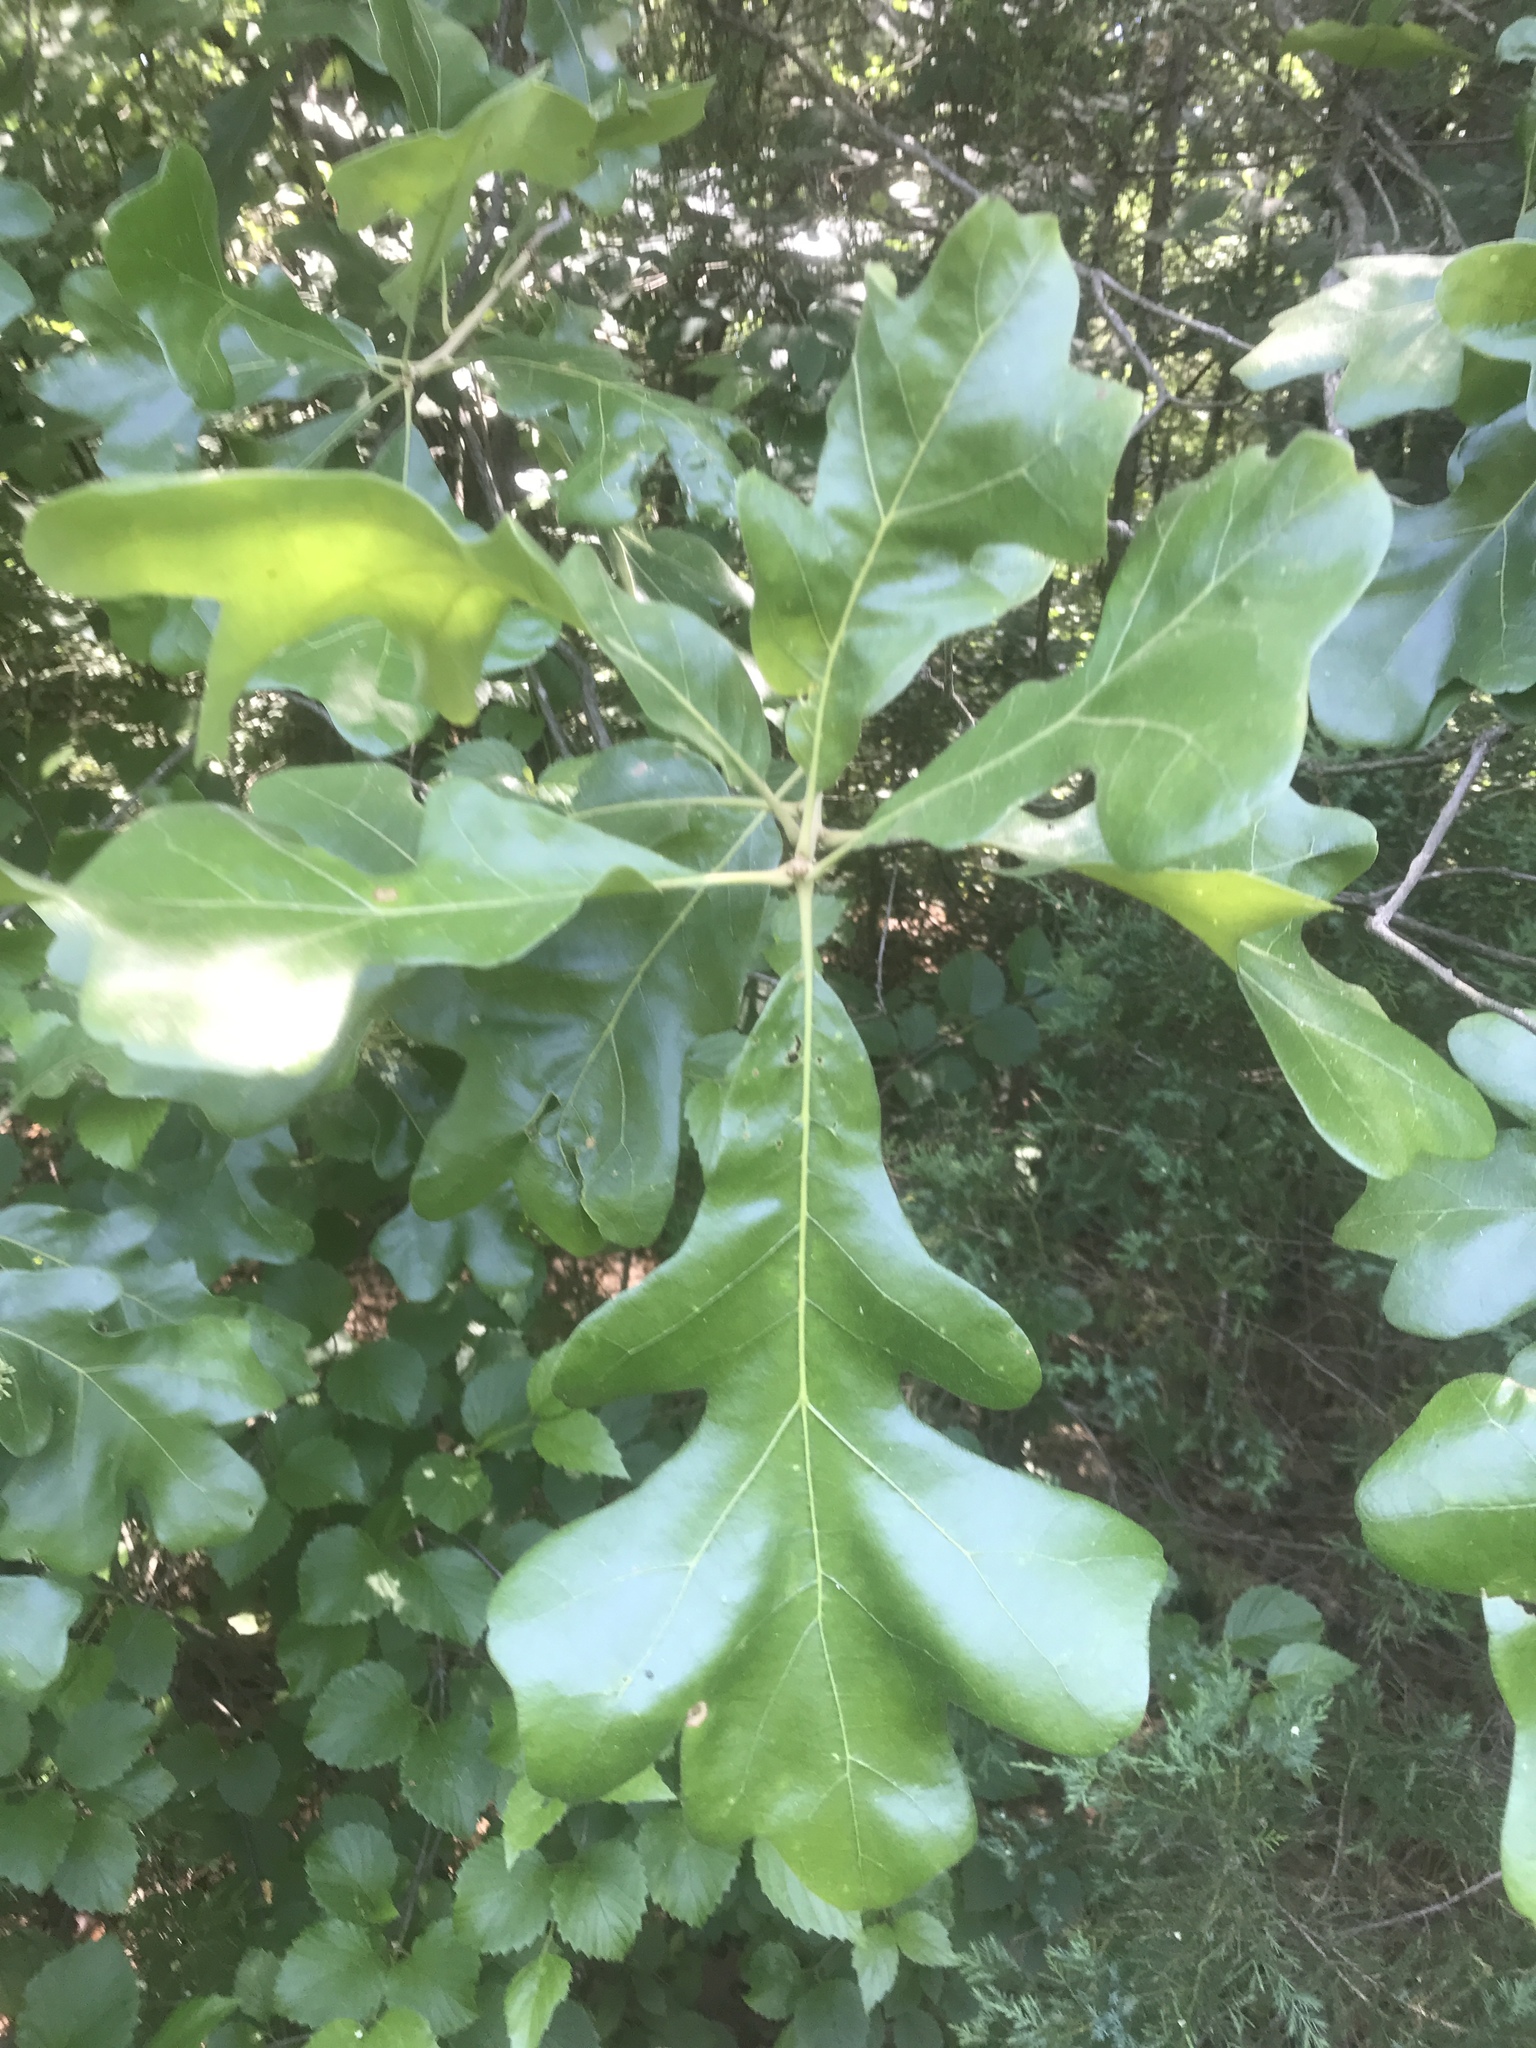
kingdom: Plantae
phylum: Tracheophyta
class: Magnoliopsida
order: Fagales
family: Fagaceae
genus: Quercus
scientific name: Quercus stellata
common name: Post oak
